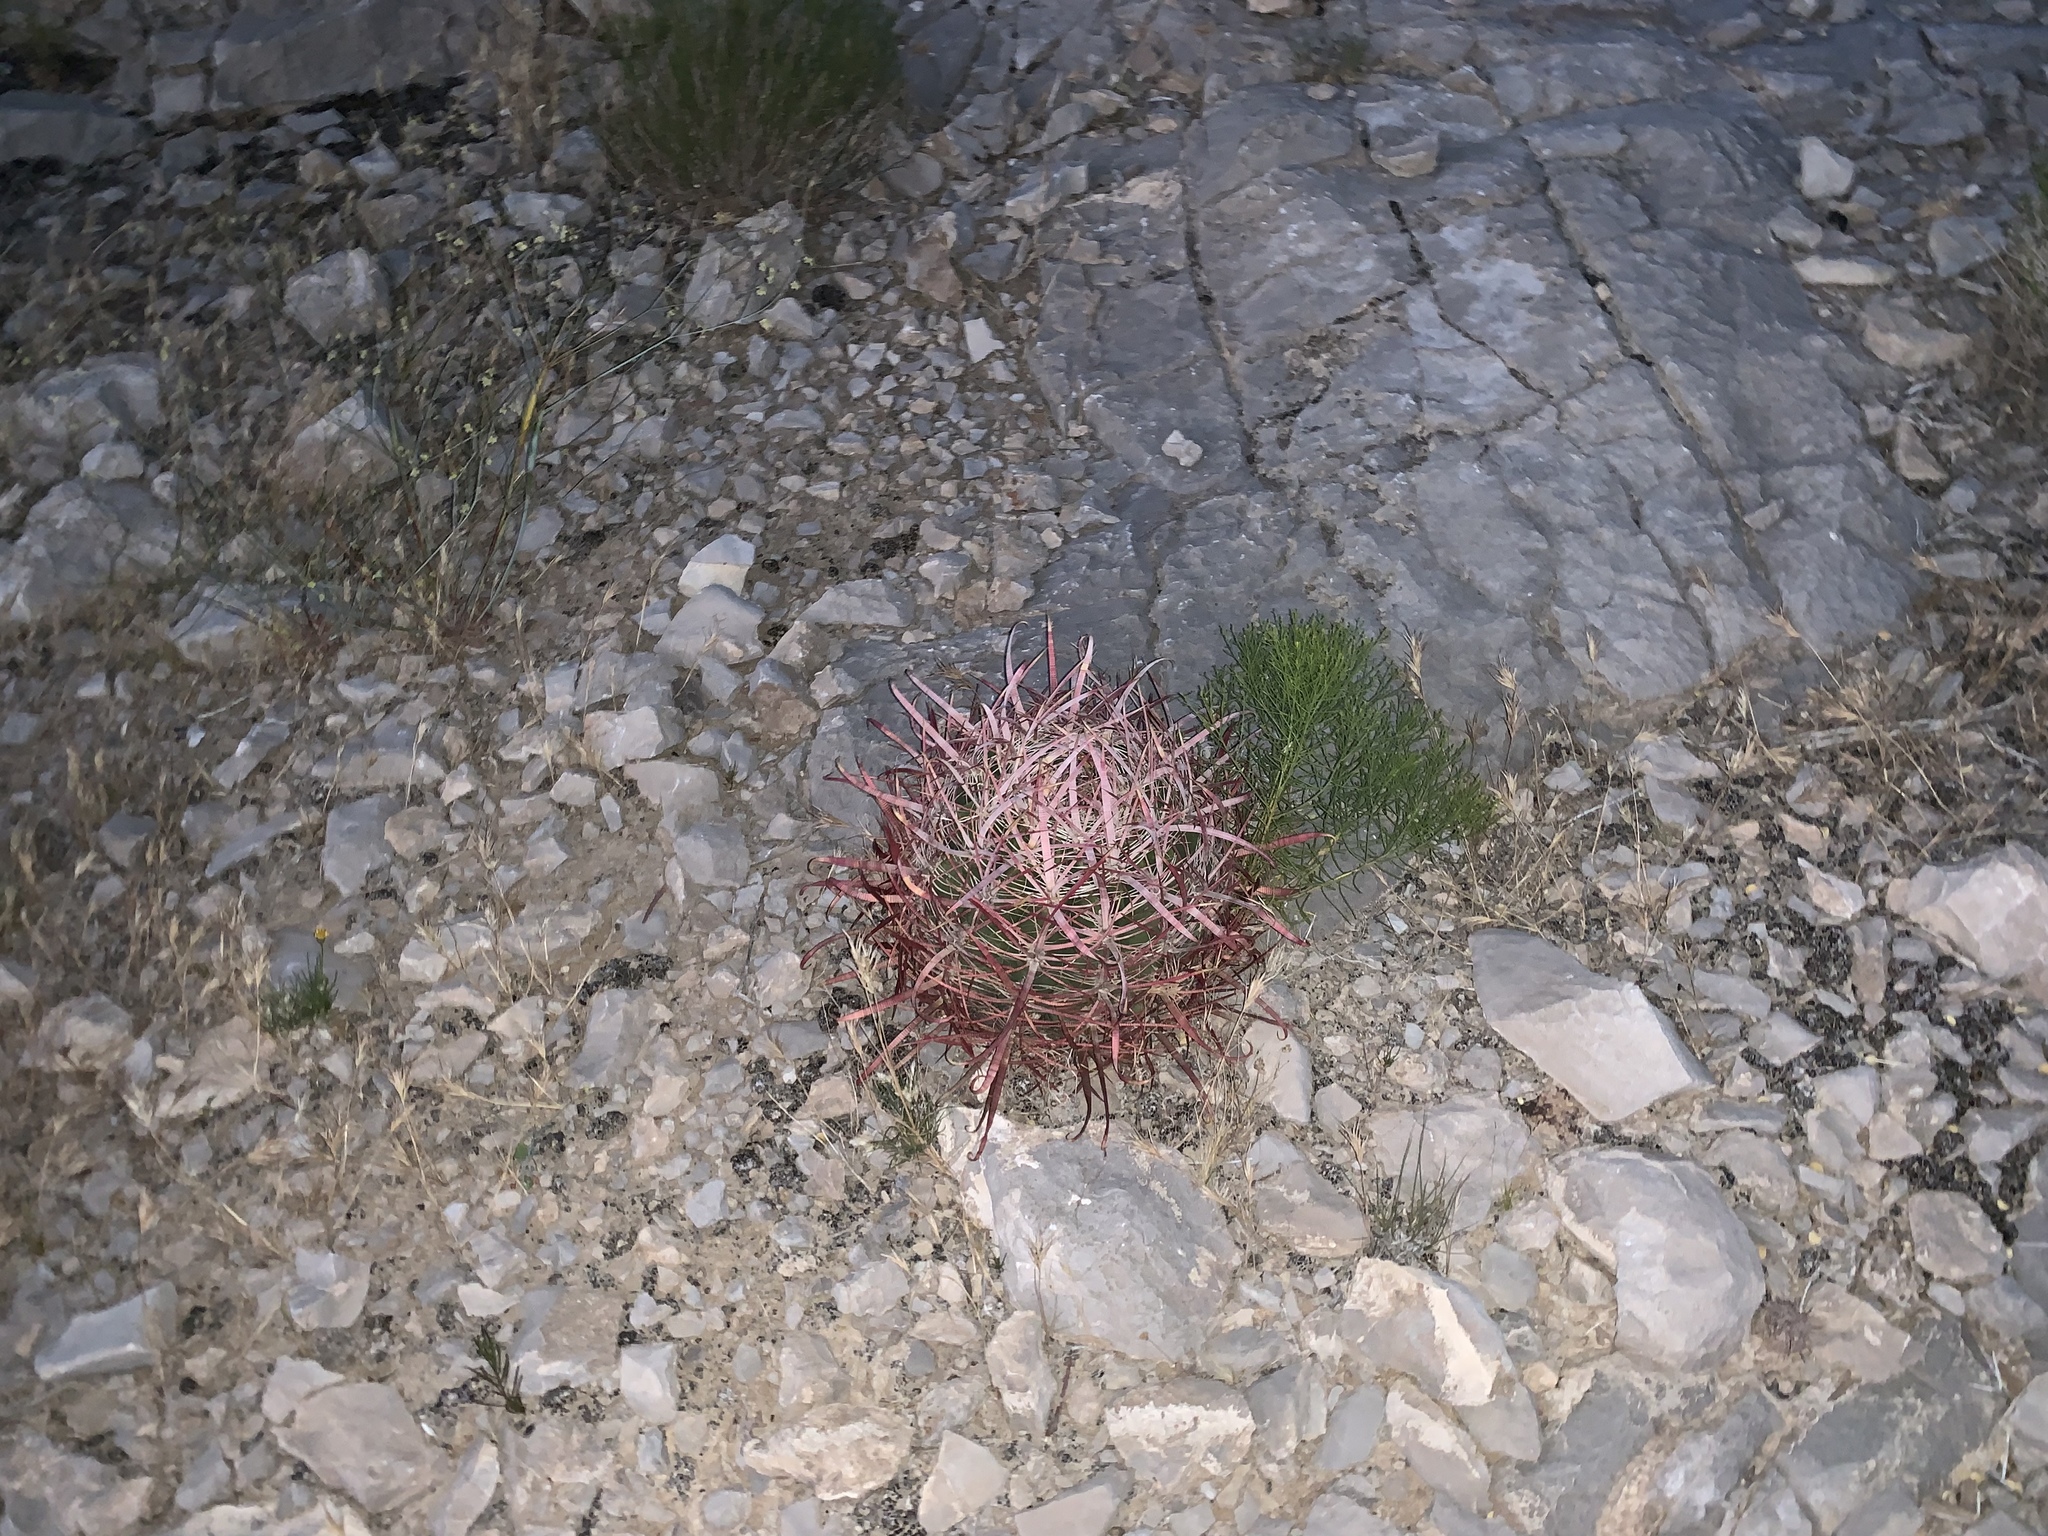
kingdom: Plantae
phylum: Tracheophyta
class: Magnoliopsida
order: Caryophyllales
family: Cactaceae
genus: Ferocactus
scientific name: Ferocactus cylindraceus
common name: California barrel cactus
